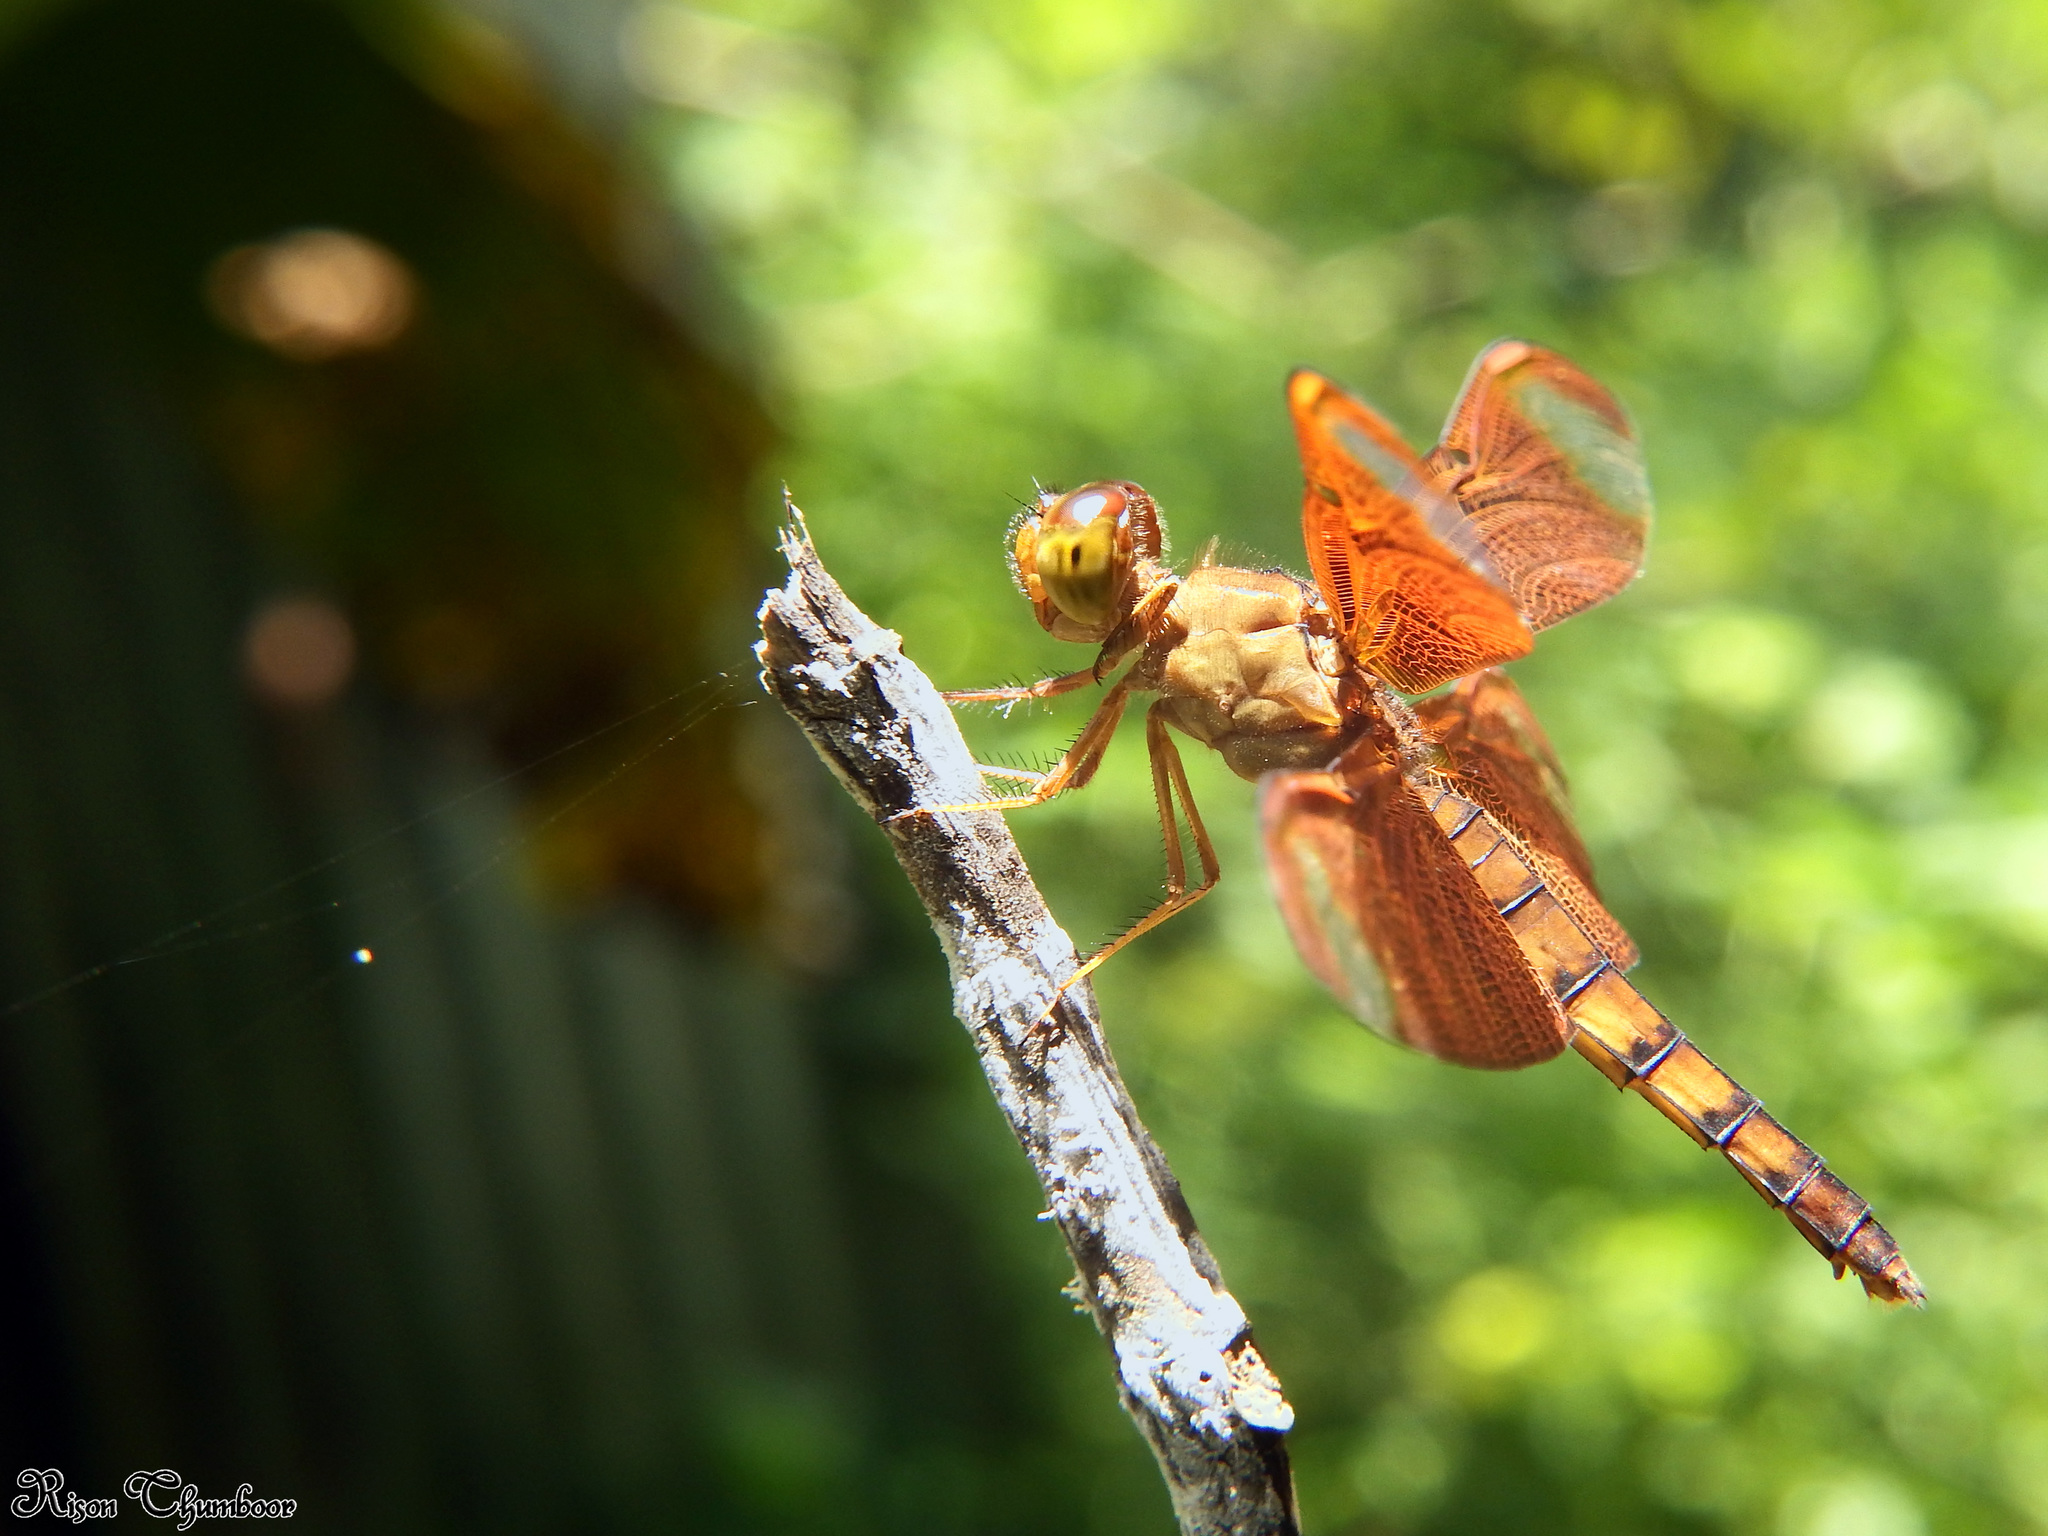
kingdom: Animalia
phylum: Arthropoda
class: Insecta
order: Odonata
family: Libellulidae
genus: Neurothemis
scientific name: Neurothemis fulvia
